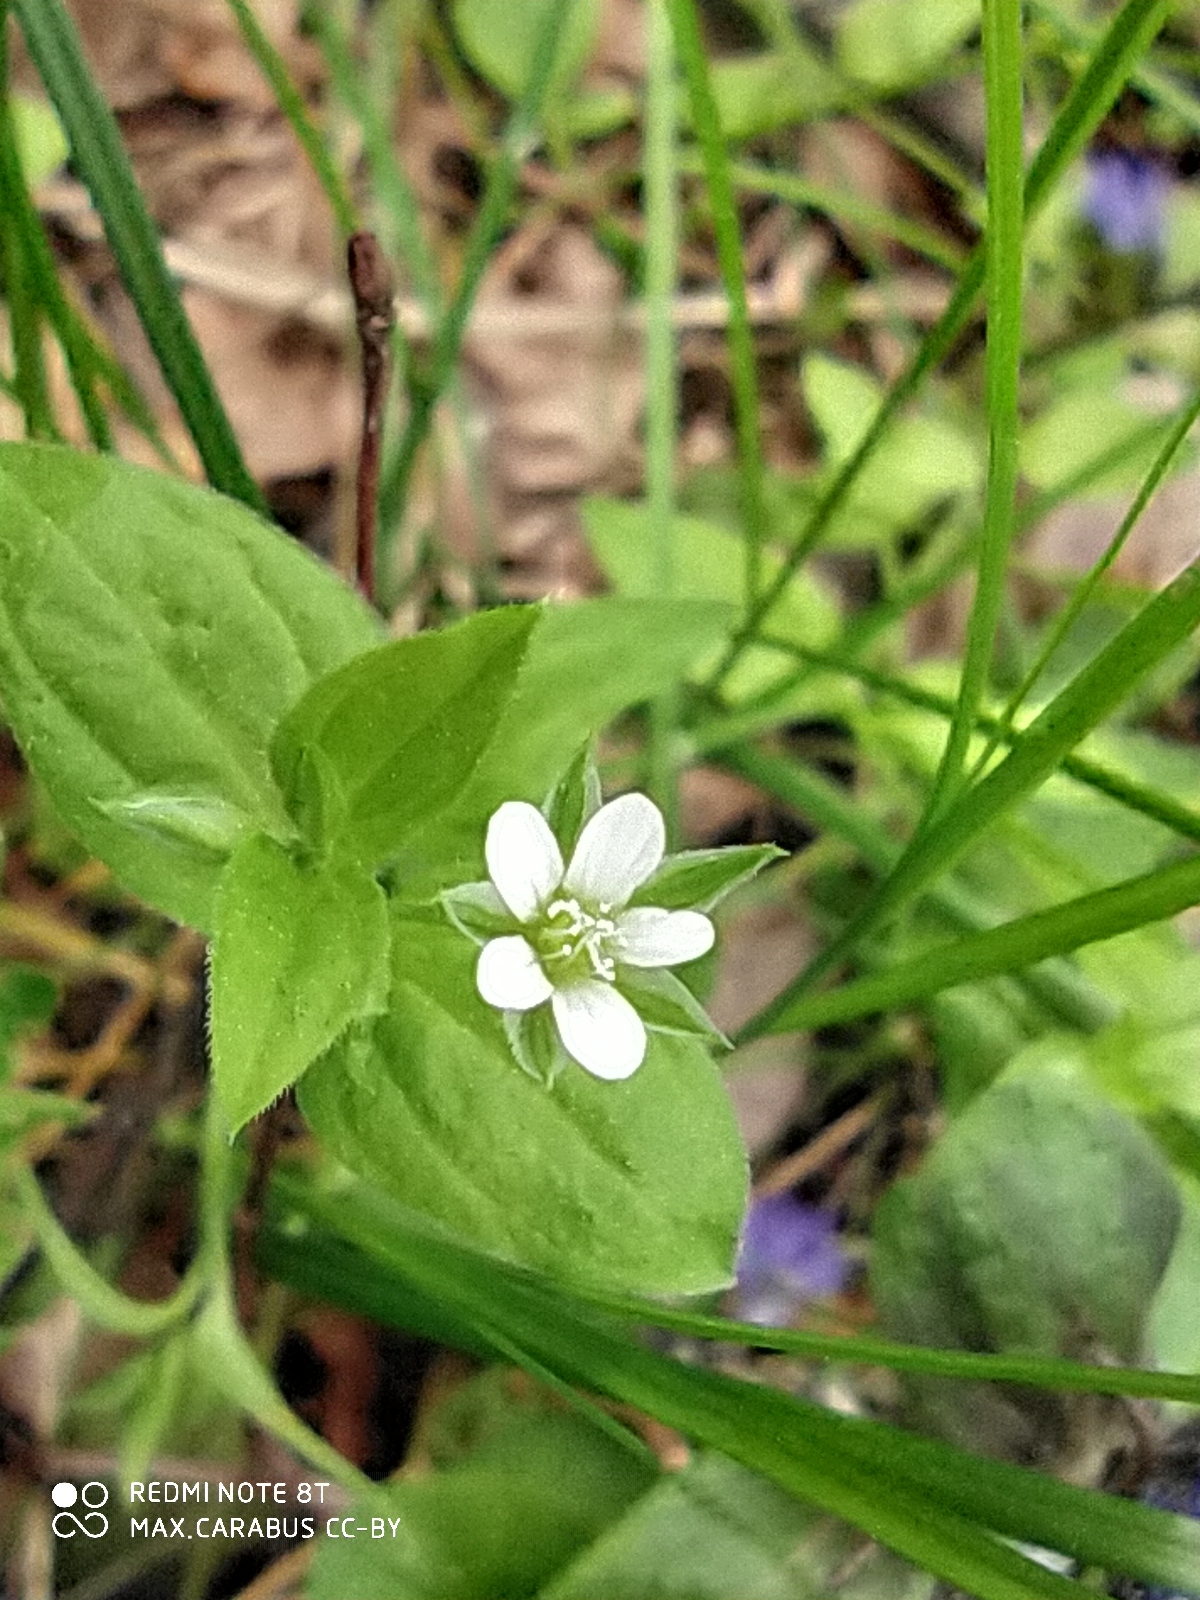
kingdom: Plantae
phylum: Tracheophyta
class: Magnoliopsida
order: Caryophyllales
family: Caryophyllaceae
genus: Moehringia
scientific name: Moehringia trinervia
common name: Three-nerved sandwort
